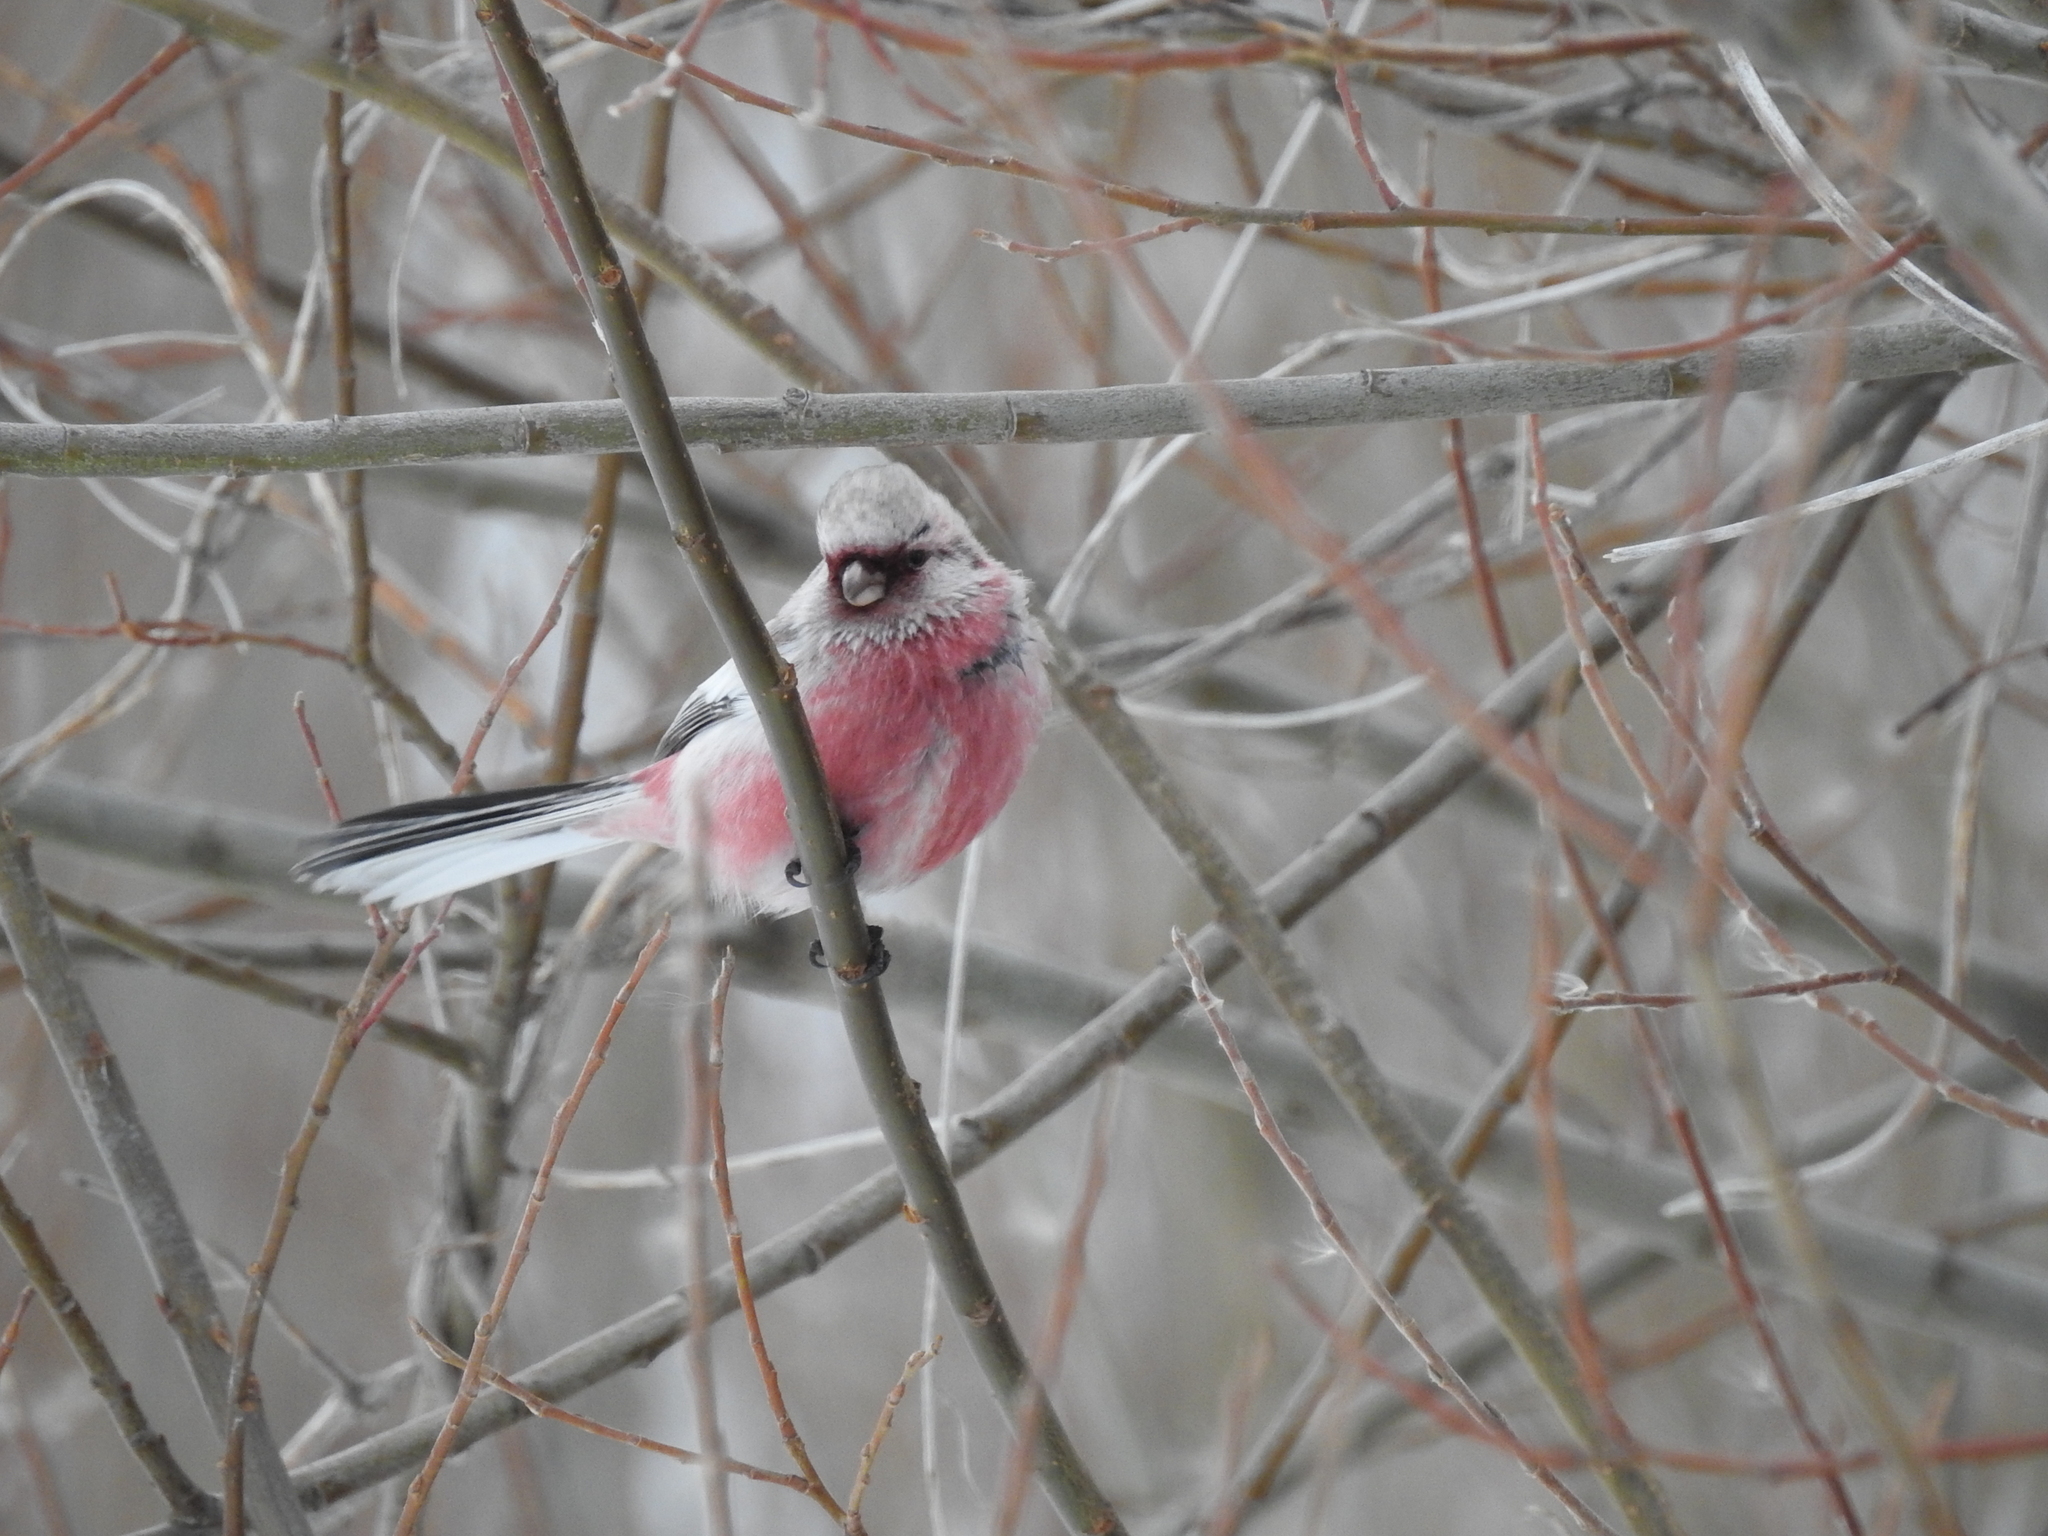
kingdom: Animalia
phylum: Chordata
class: Aves
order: Passeriformes
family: Fringillidae
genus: Carpodacus
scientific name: Carpodacus sibiricus
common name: Long-tailed rosefinch
